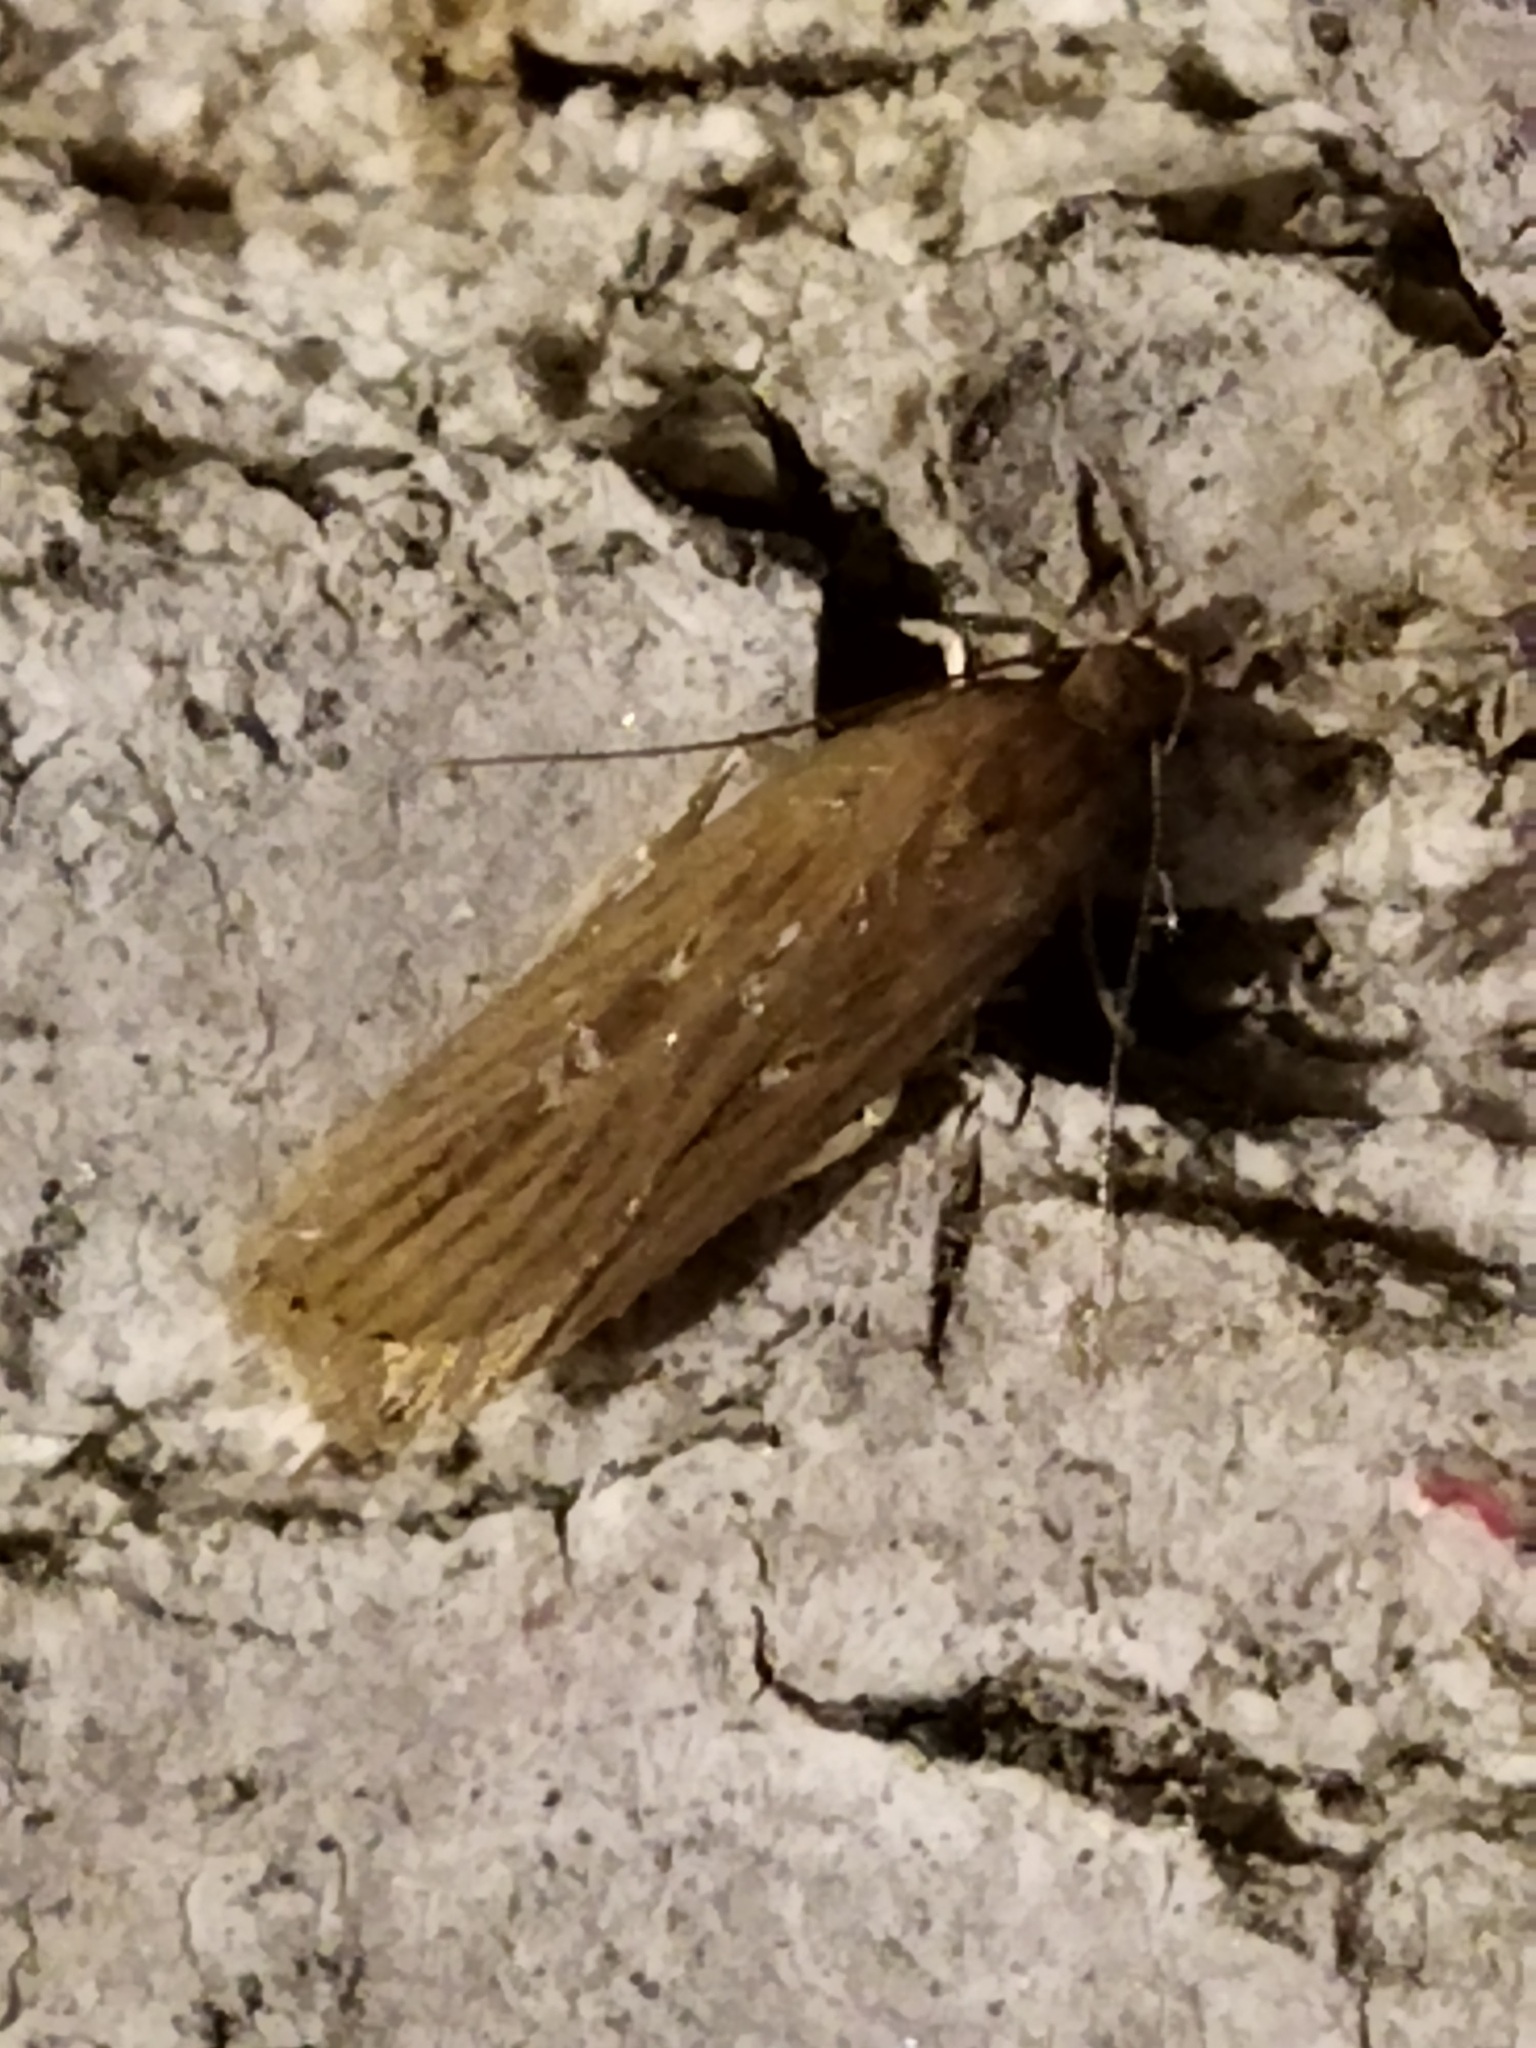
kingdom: Animalia
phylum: Arthropoda
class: Insecta
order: Lepidoptera
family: Gelechiidae
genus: Helcystogramma
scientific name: Helcystogramma triannulella
